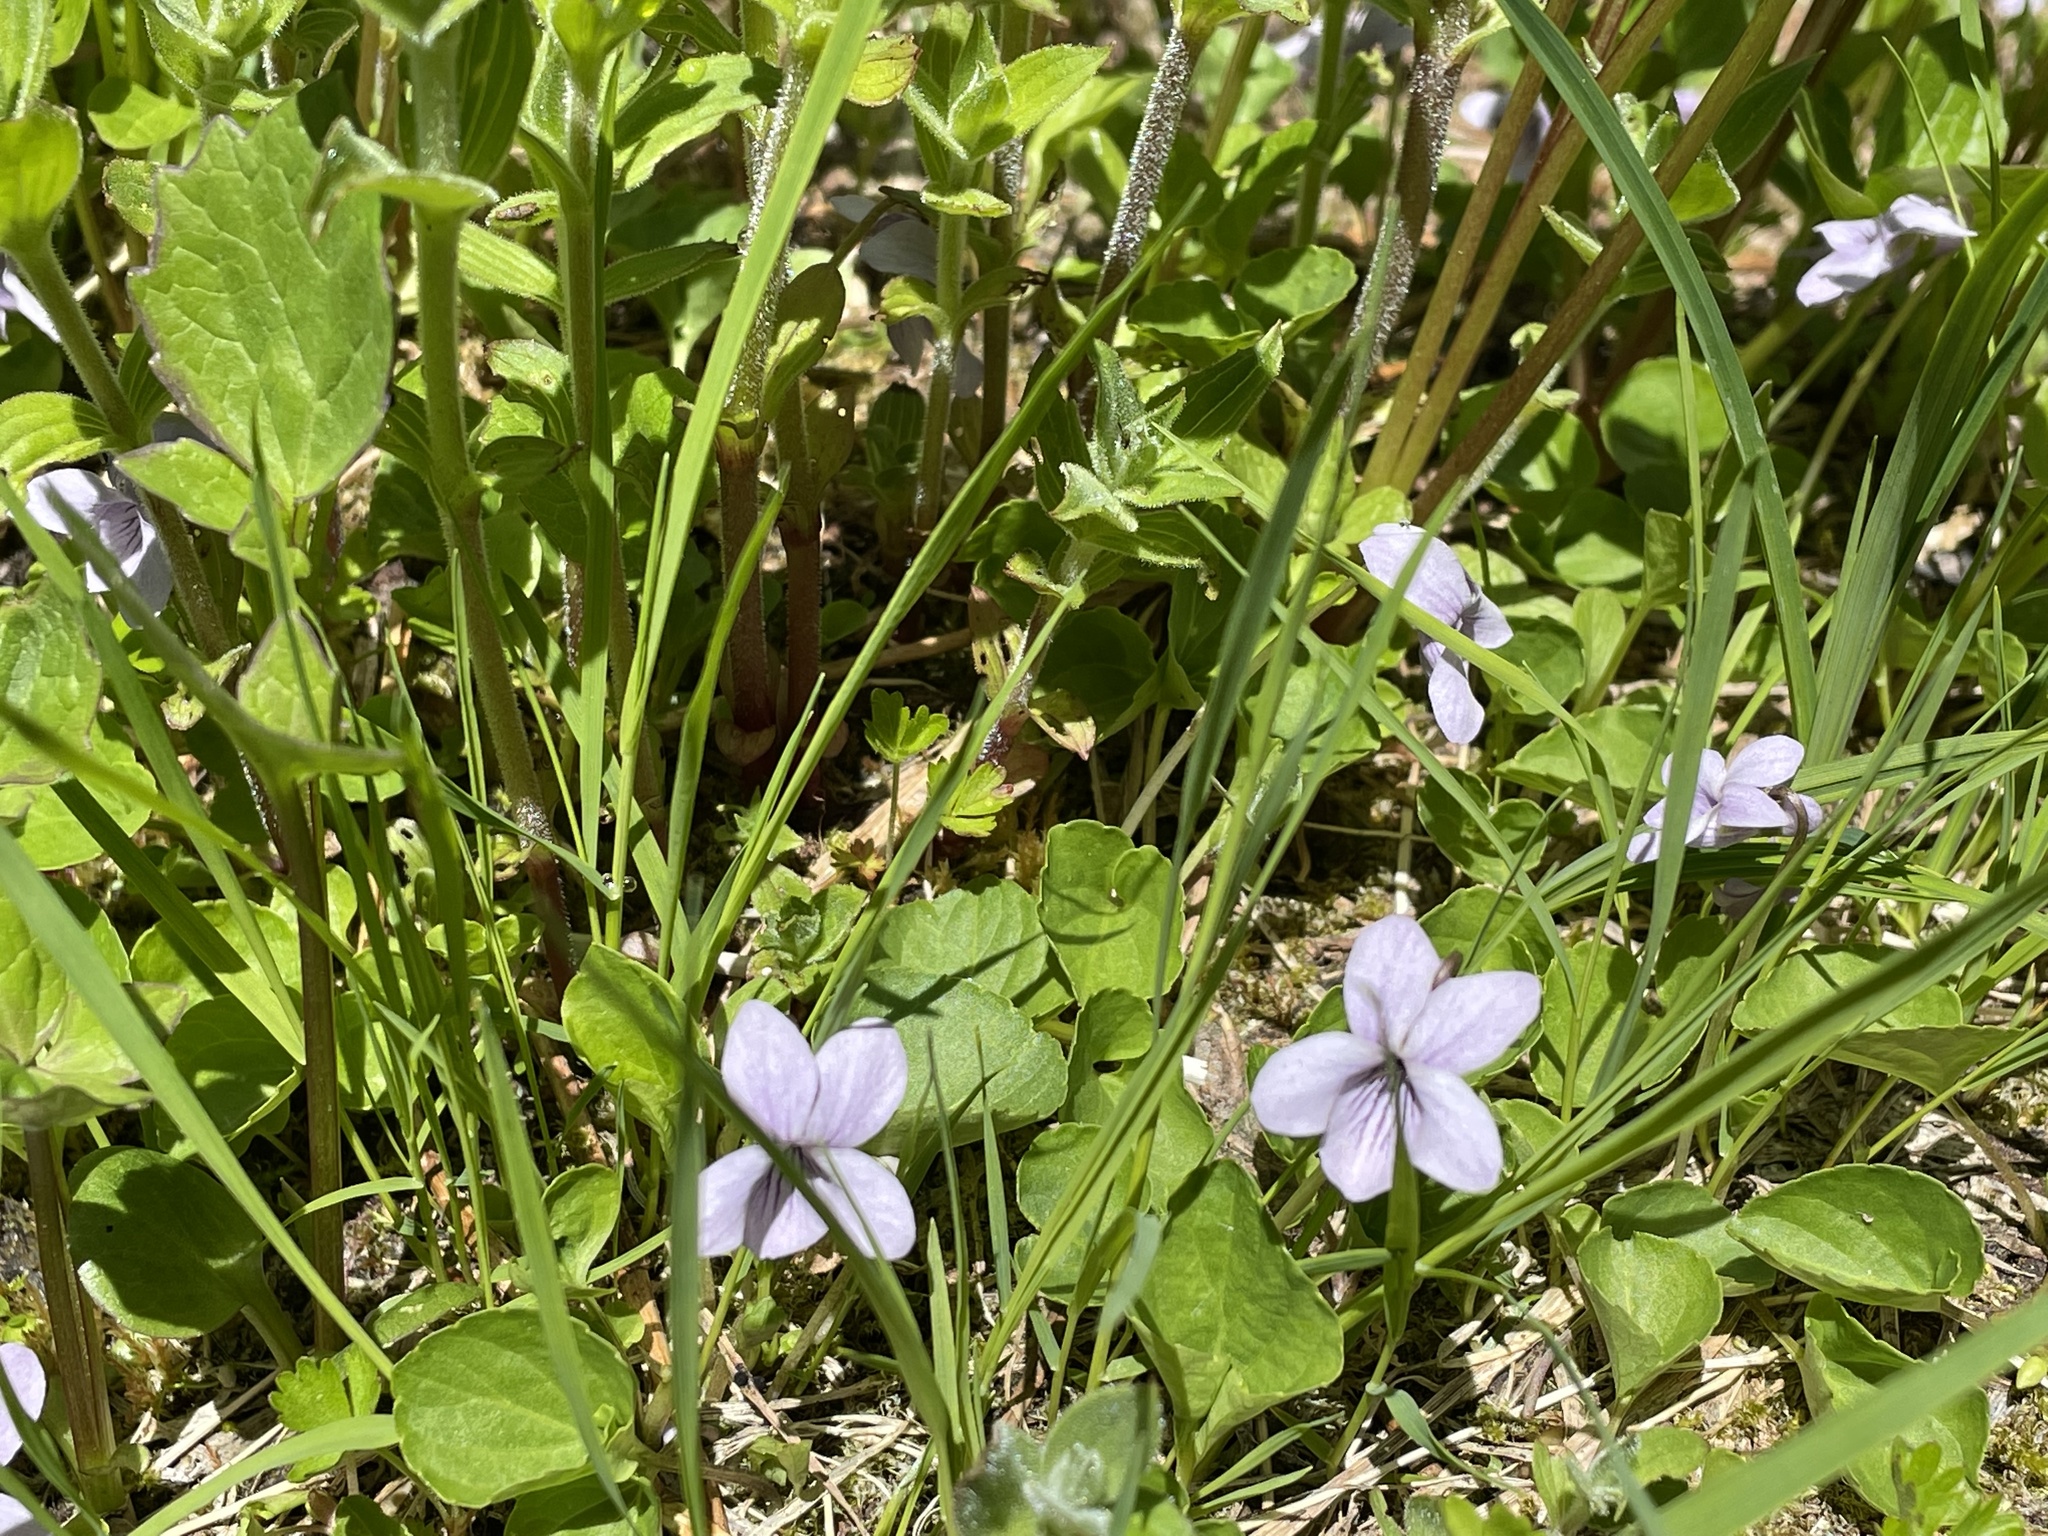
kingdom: Plantae
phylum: Tracheophyta
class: Magnoliopsida
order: Malpighiales
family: Violaceae
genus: Viola
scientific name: Viola palustris
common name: Marsh violet
